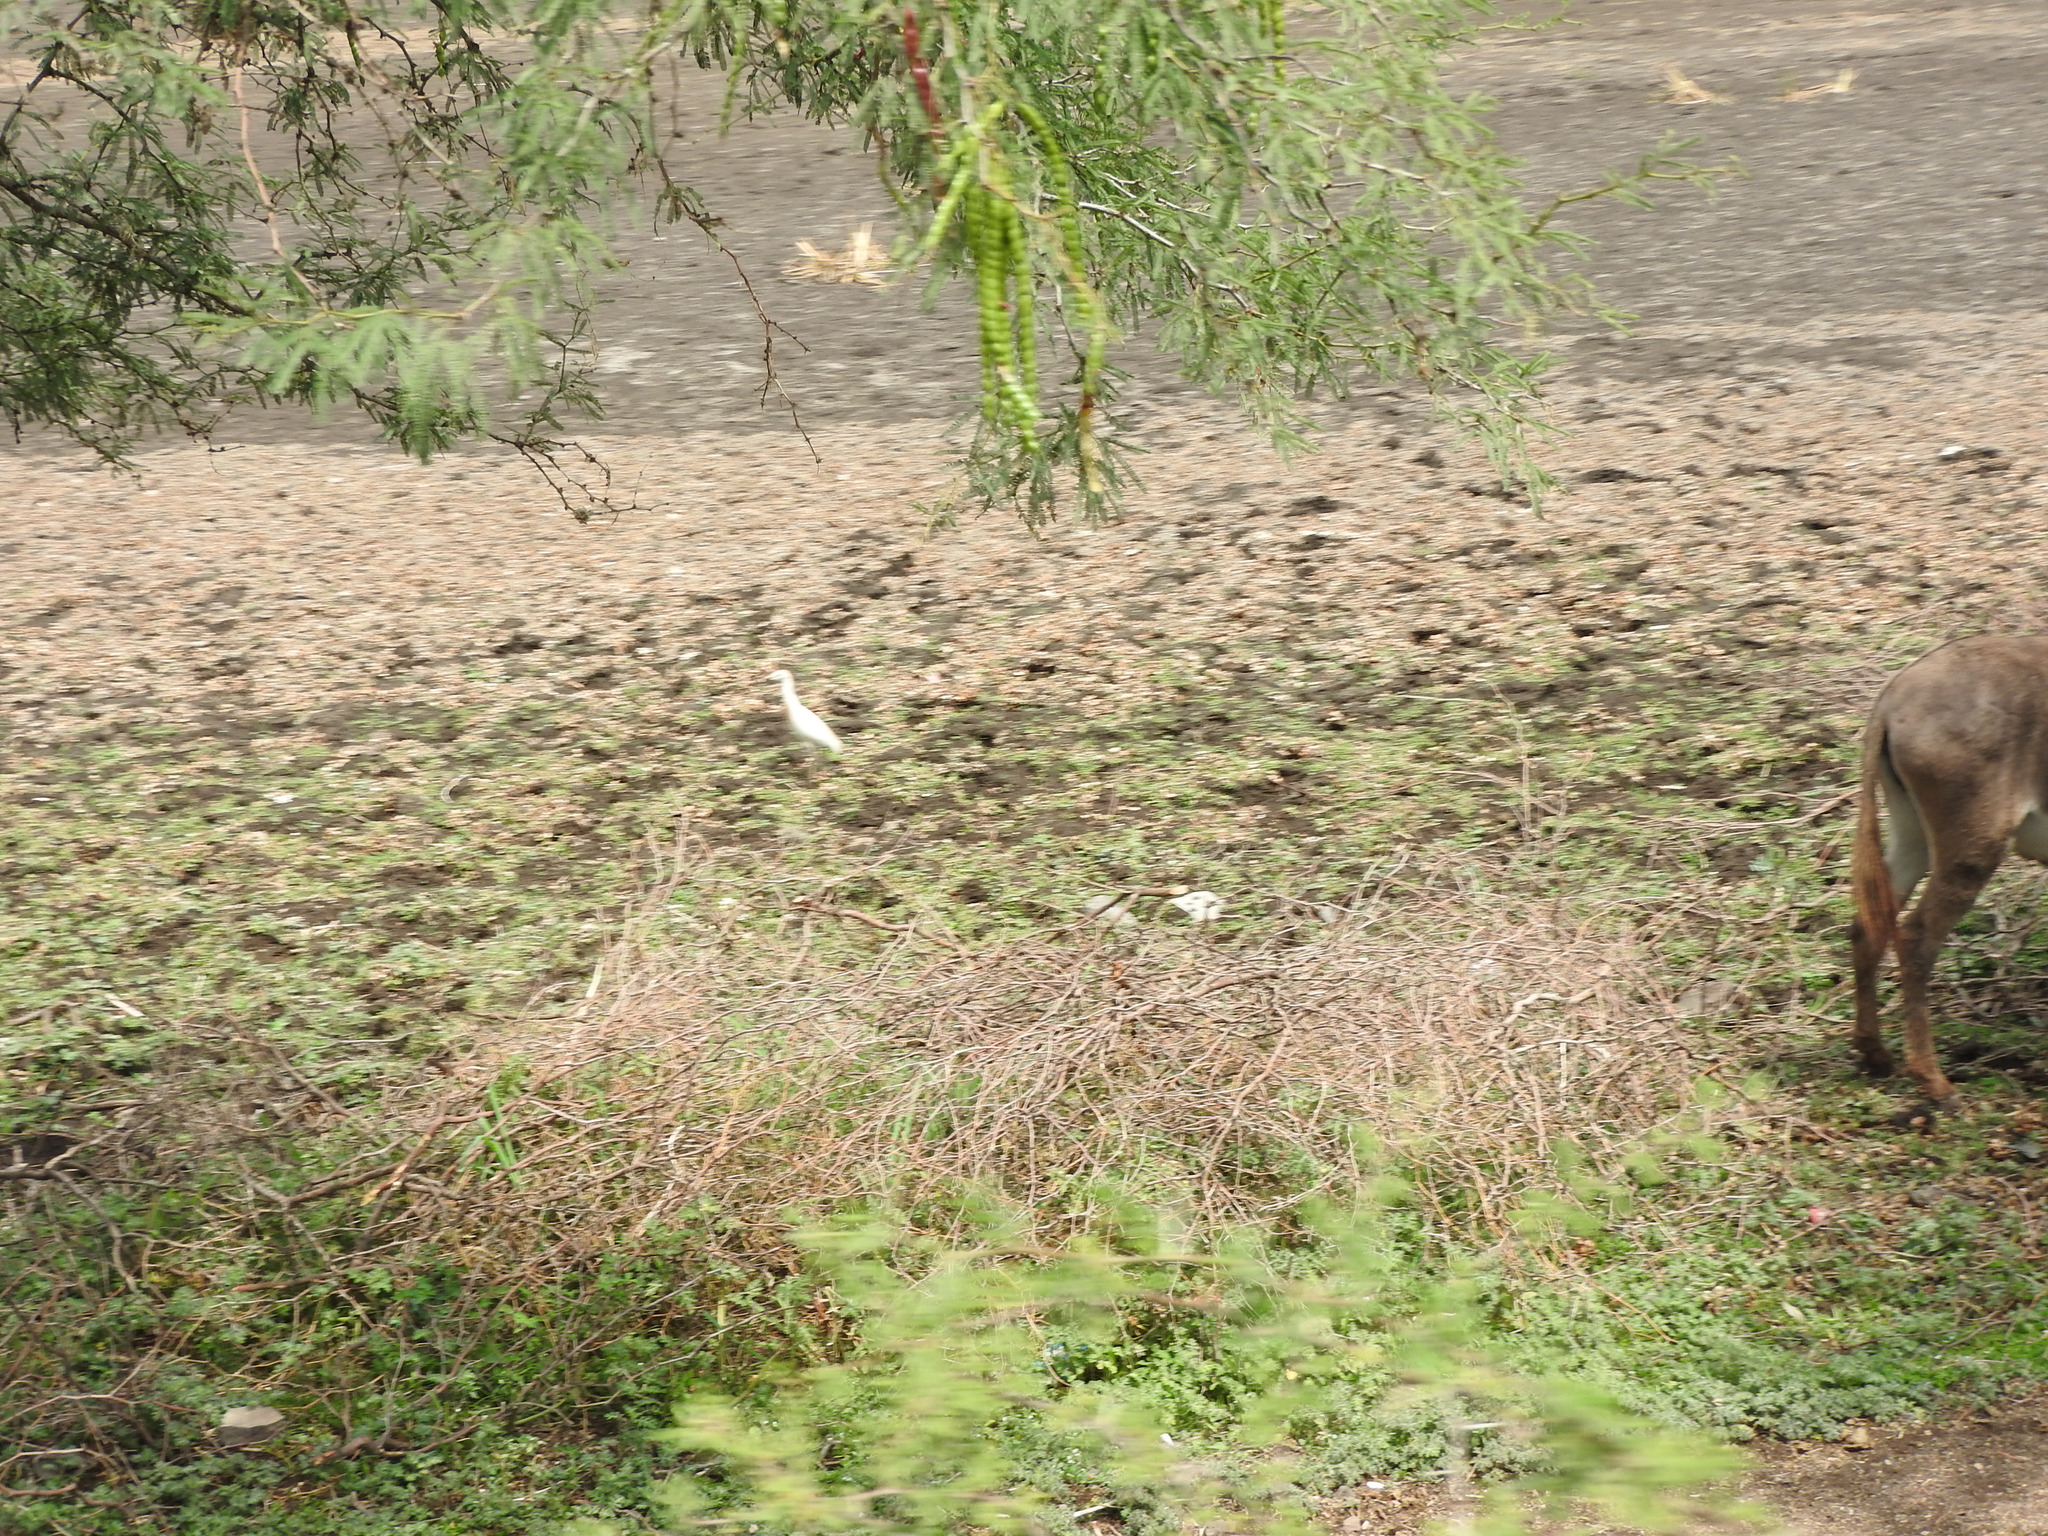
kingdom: Animalia
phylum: Chordata
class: Aves
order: Pelecaniformes
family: Ardeidae
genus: Bubulcus
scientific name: Bubulcus ibis
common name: Cattle egret
